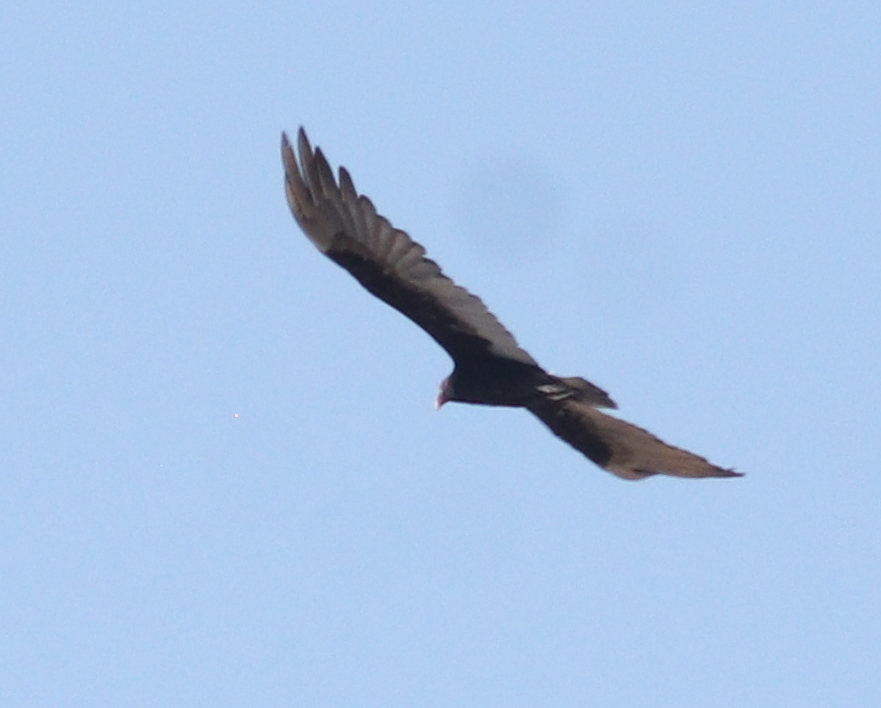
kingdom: Animalia
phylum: Chordata
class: Aves
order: Accipitriformes
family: Cathartidae
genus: Cathartes
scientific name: Cathartes aura
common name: Turkey vulture
